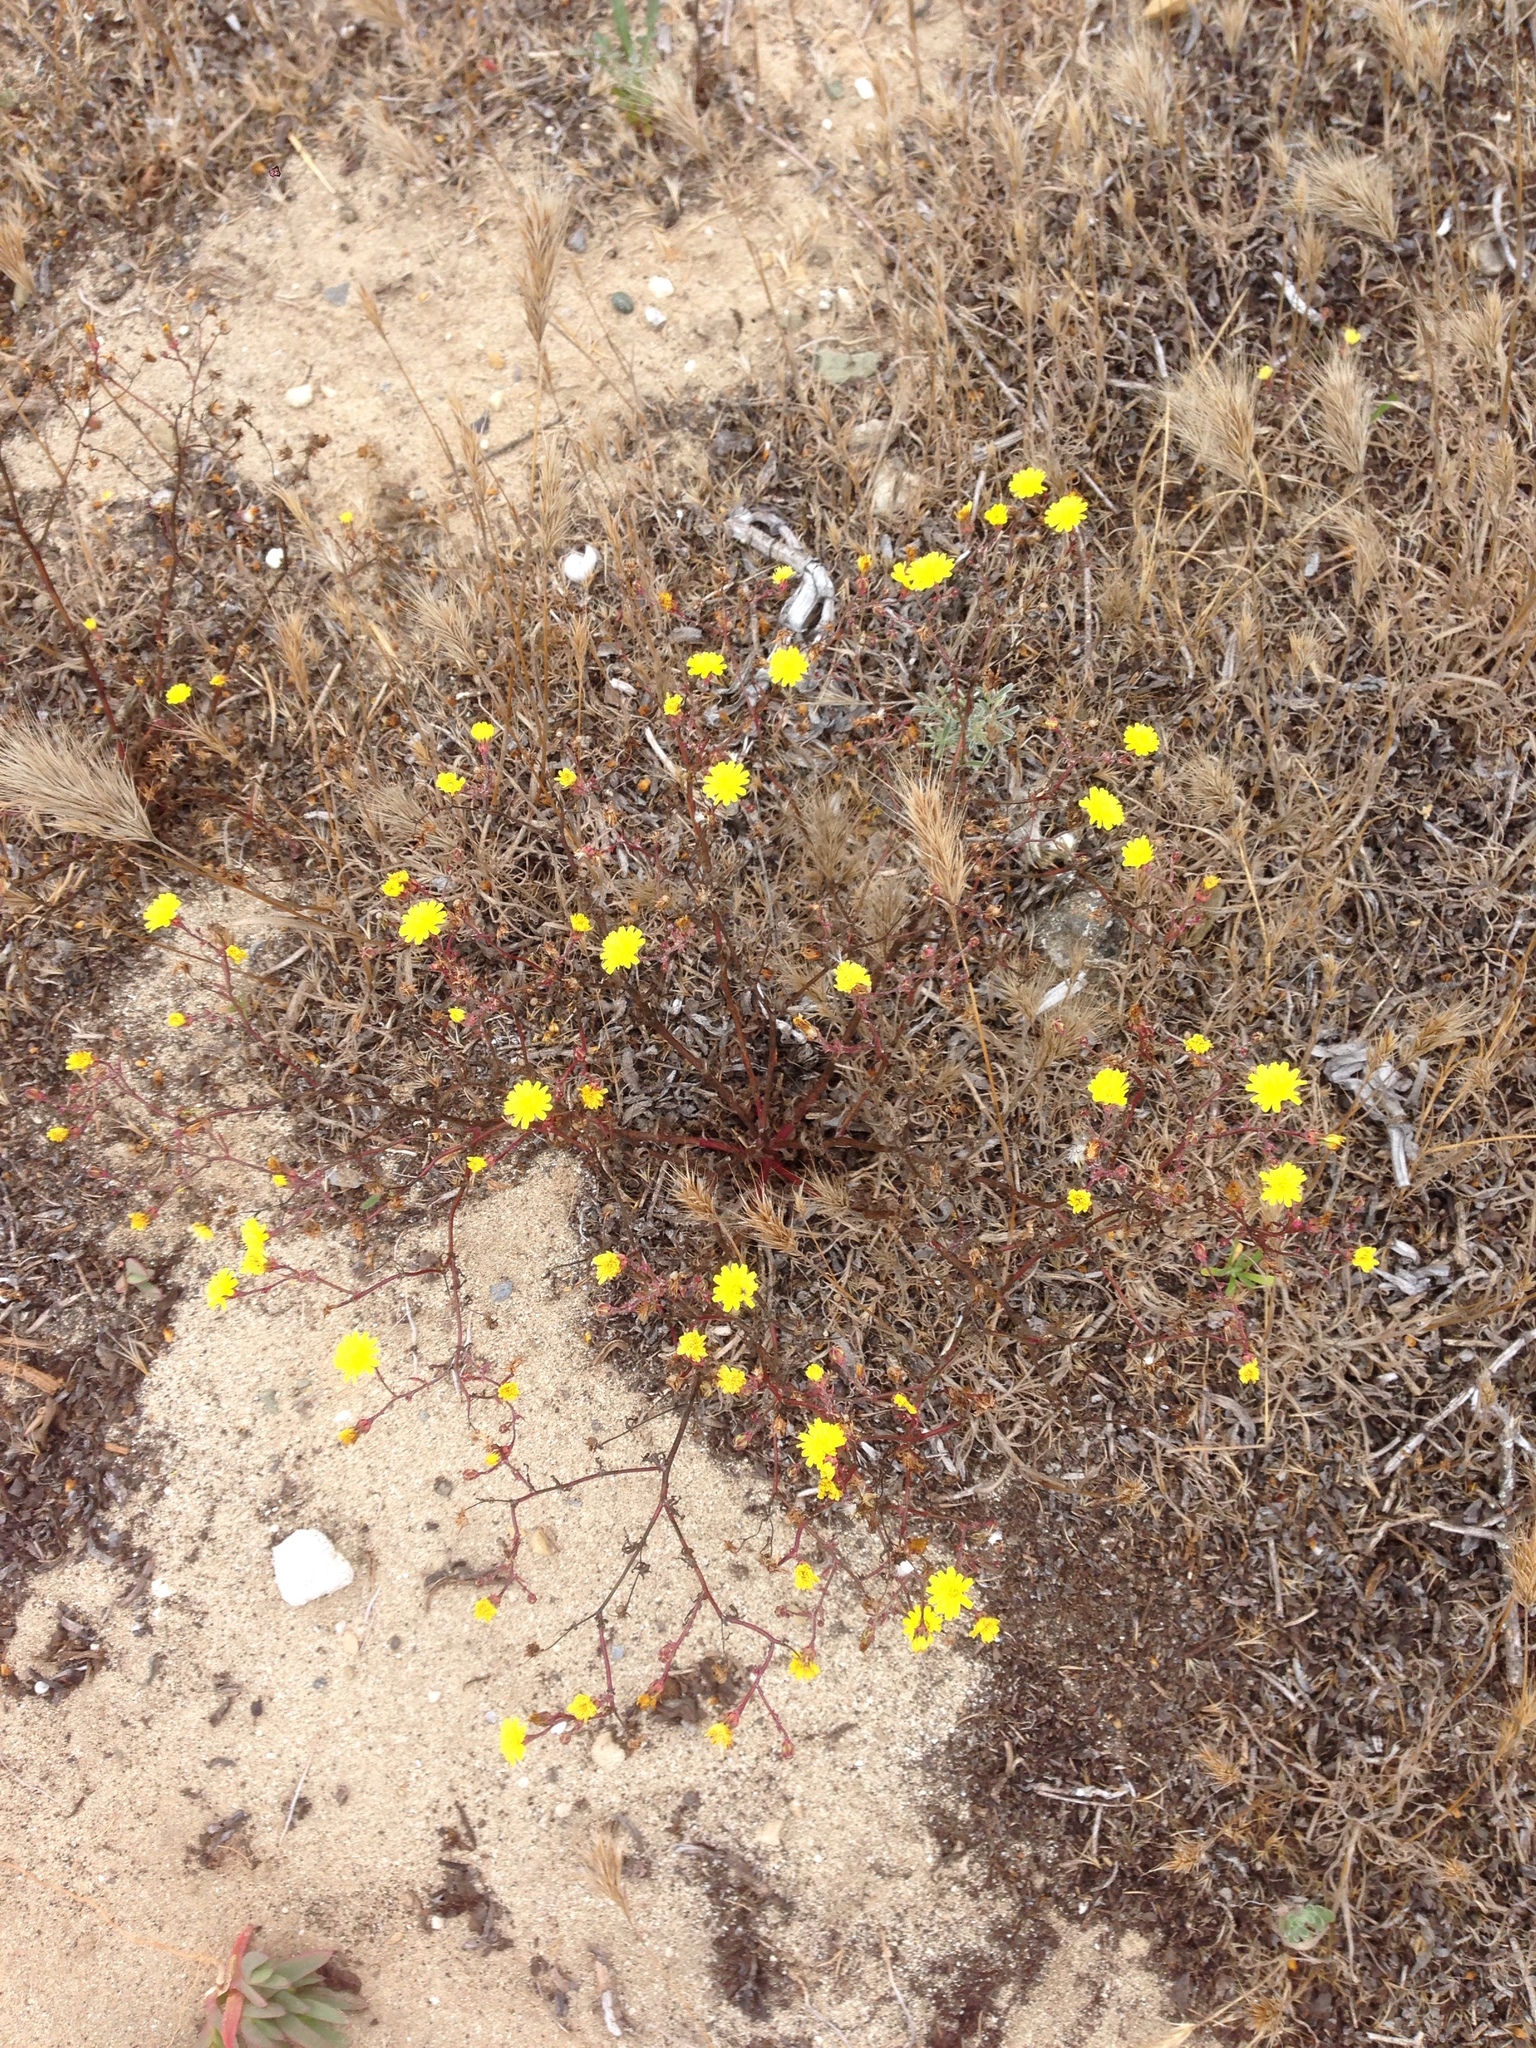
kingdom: Plantae
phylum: Tracheophyta
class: Magnoliopsida
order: Asterales
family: Asteraceae
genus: Malacothrix
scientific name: Malacothrix foliosa
